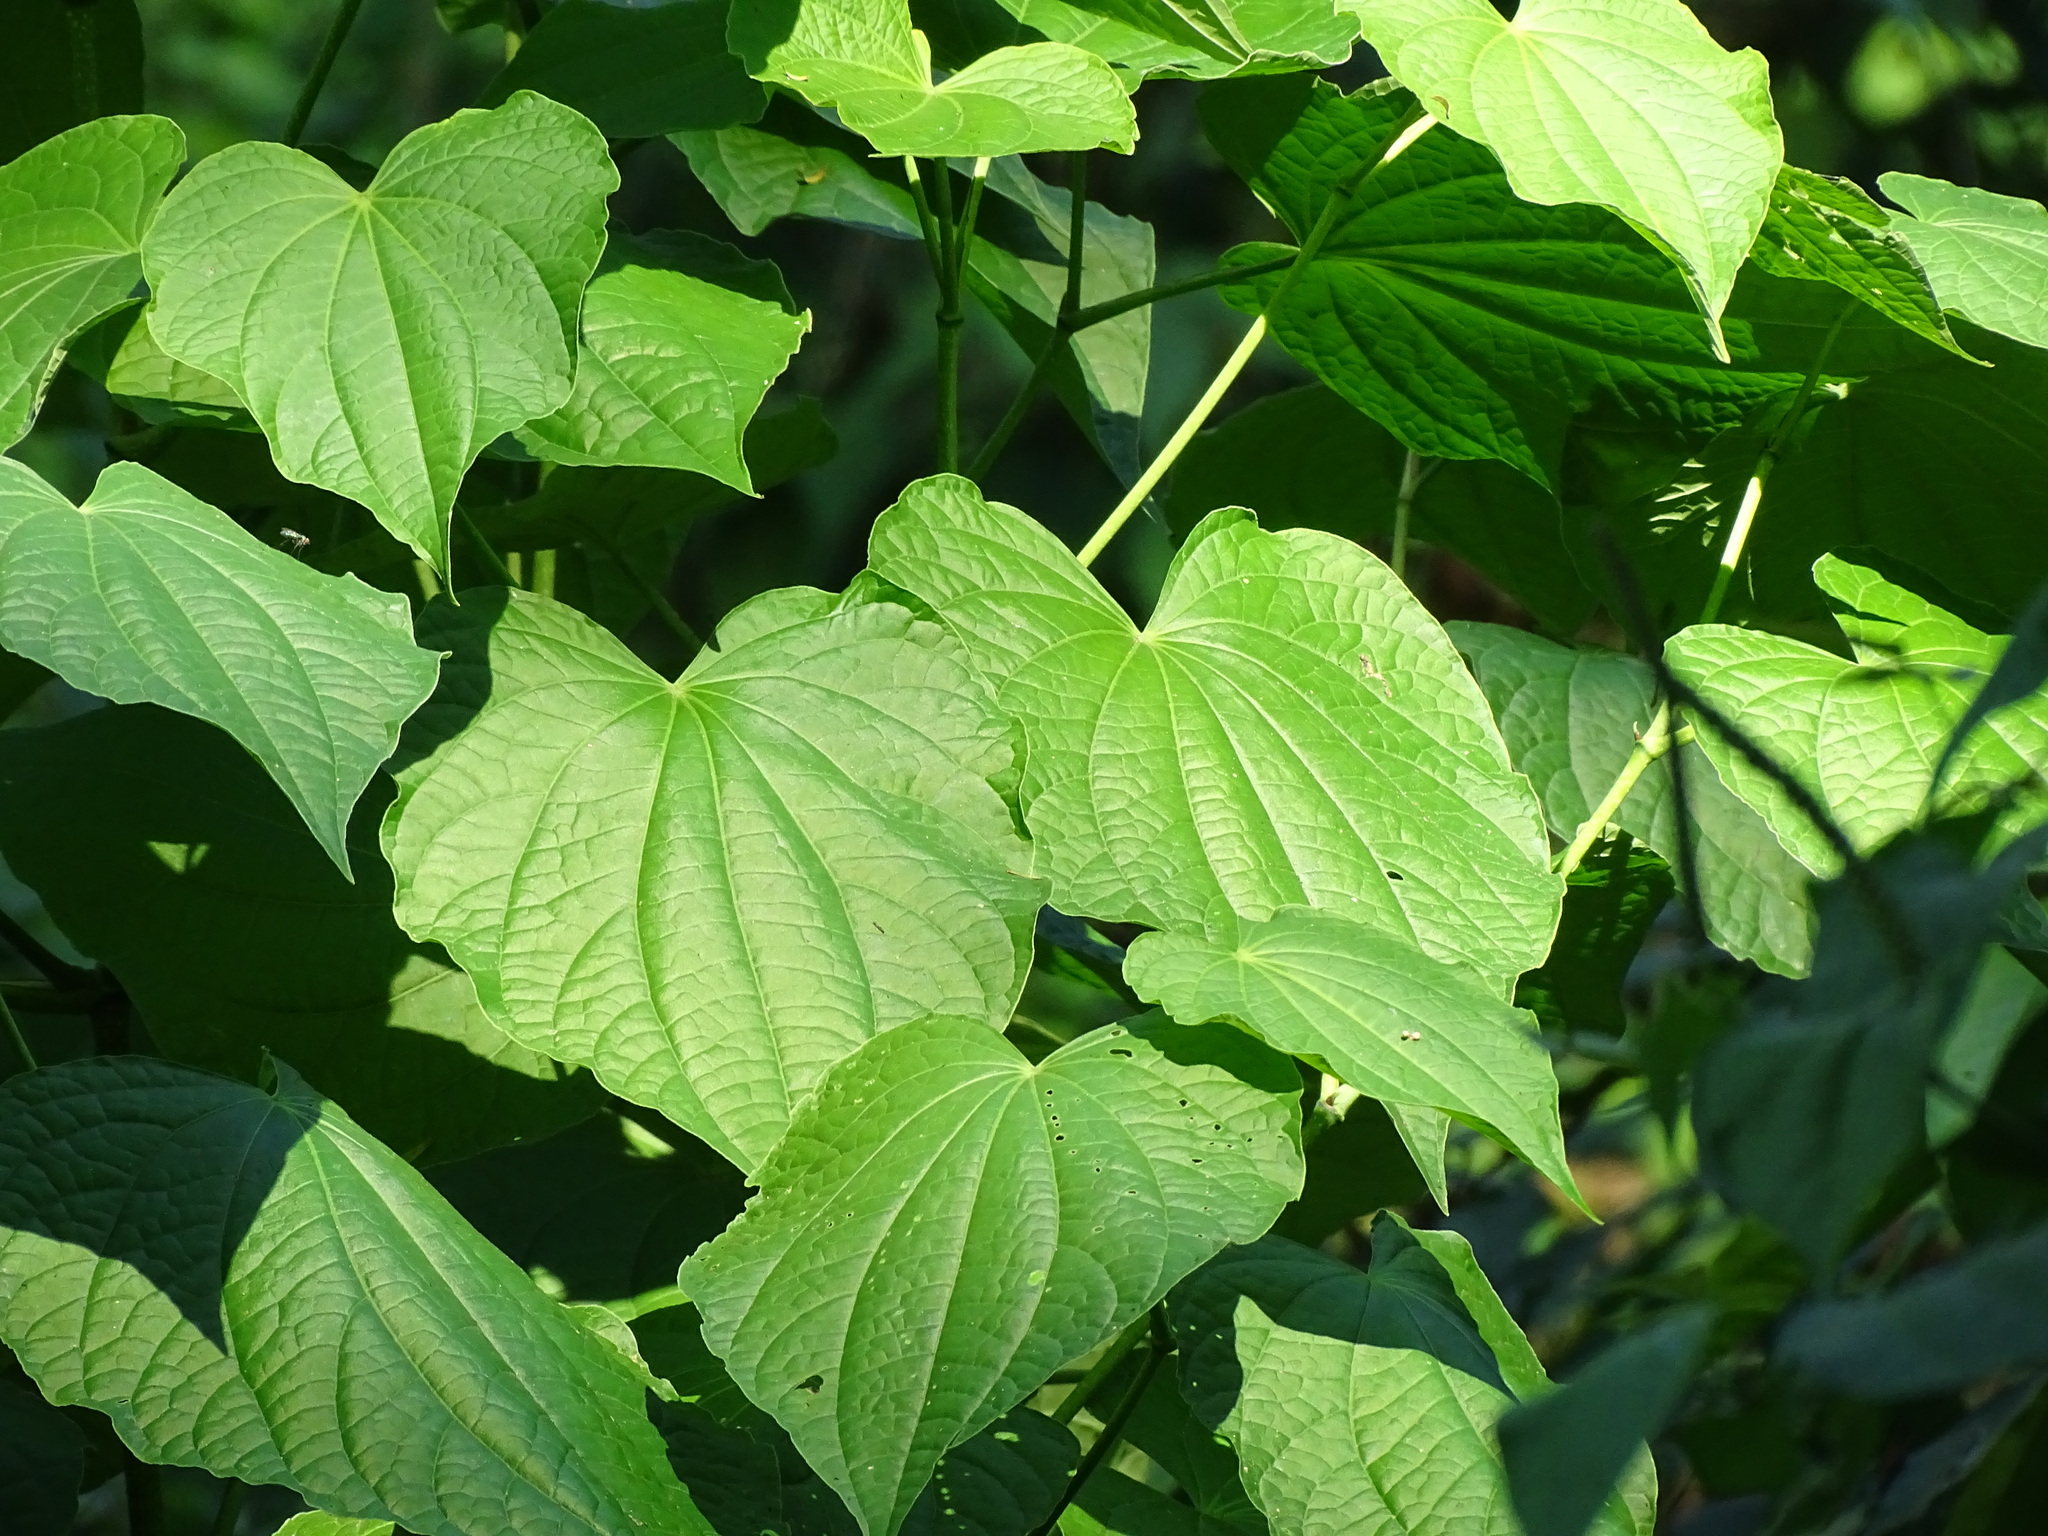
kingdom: Plantae
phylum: Tracheophyta
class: Magnoliopsida
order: Piperales
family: Piperaceae
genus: Piper
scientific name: Piper marginatum
